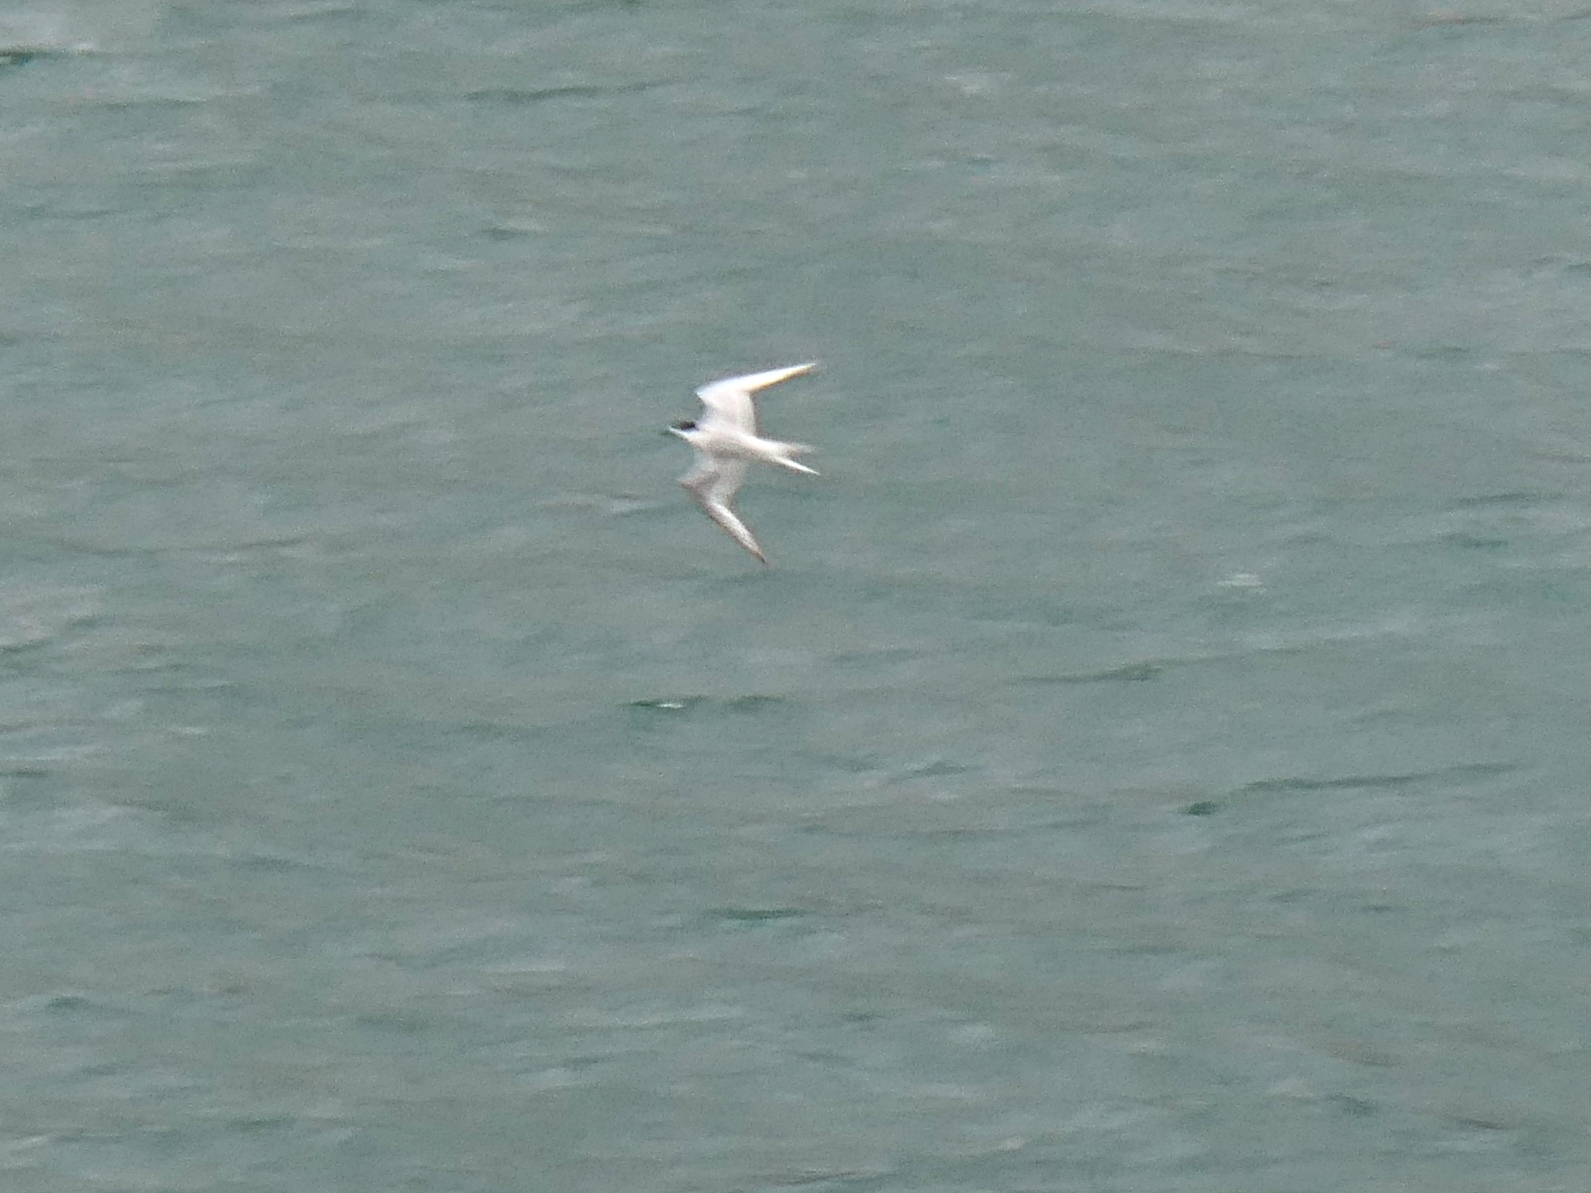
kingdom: Animalia
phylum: Chordata
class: Aves
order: Charadriiformes
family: Laridae
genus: Sterna
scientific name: Sterna striata
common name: White-fronted tern
